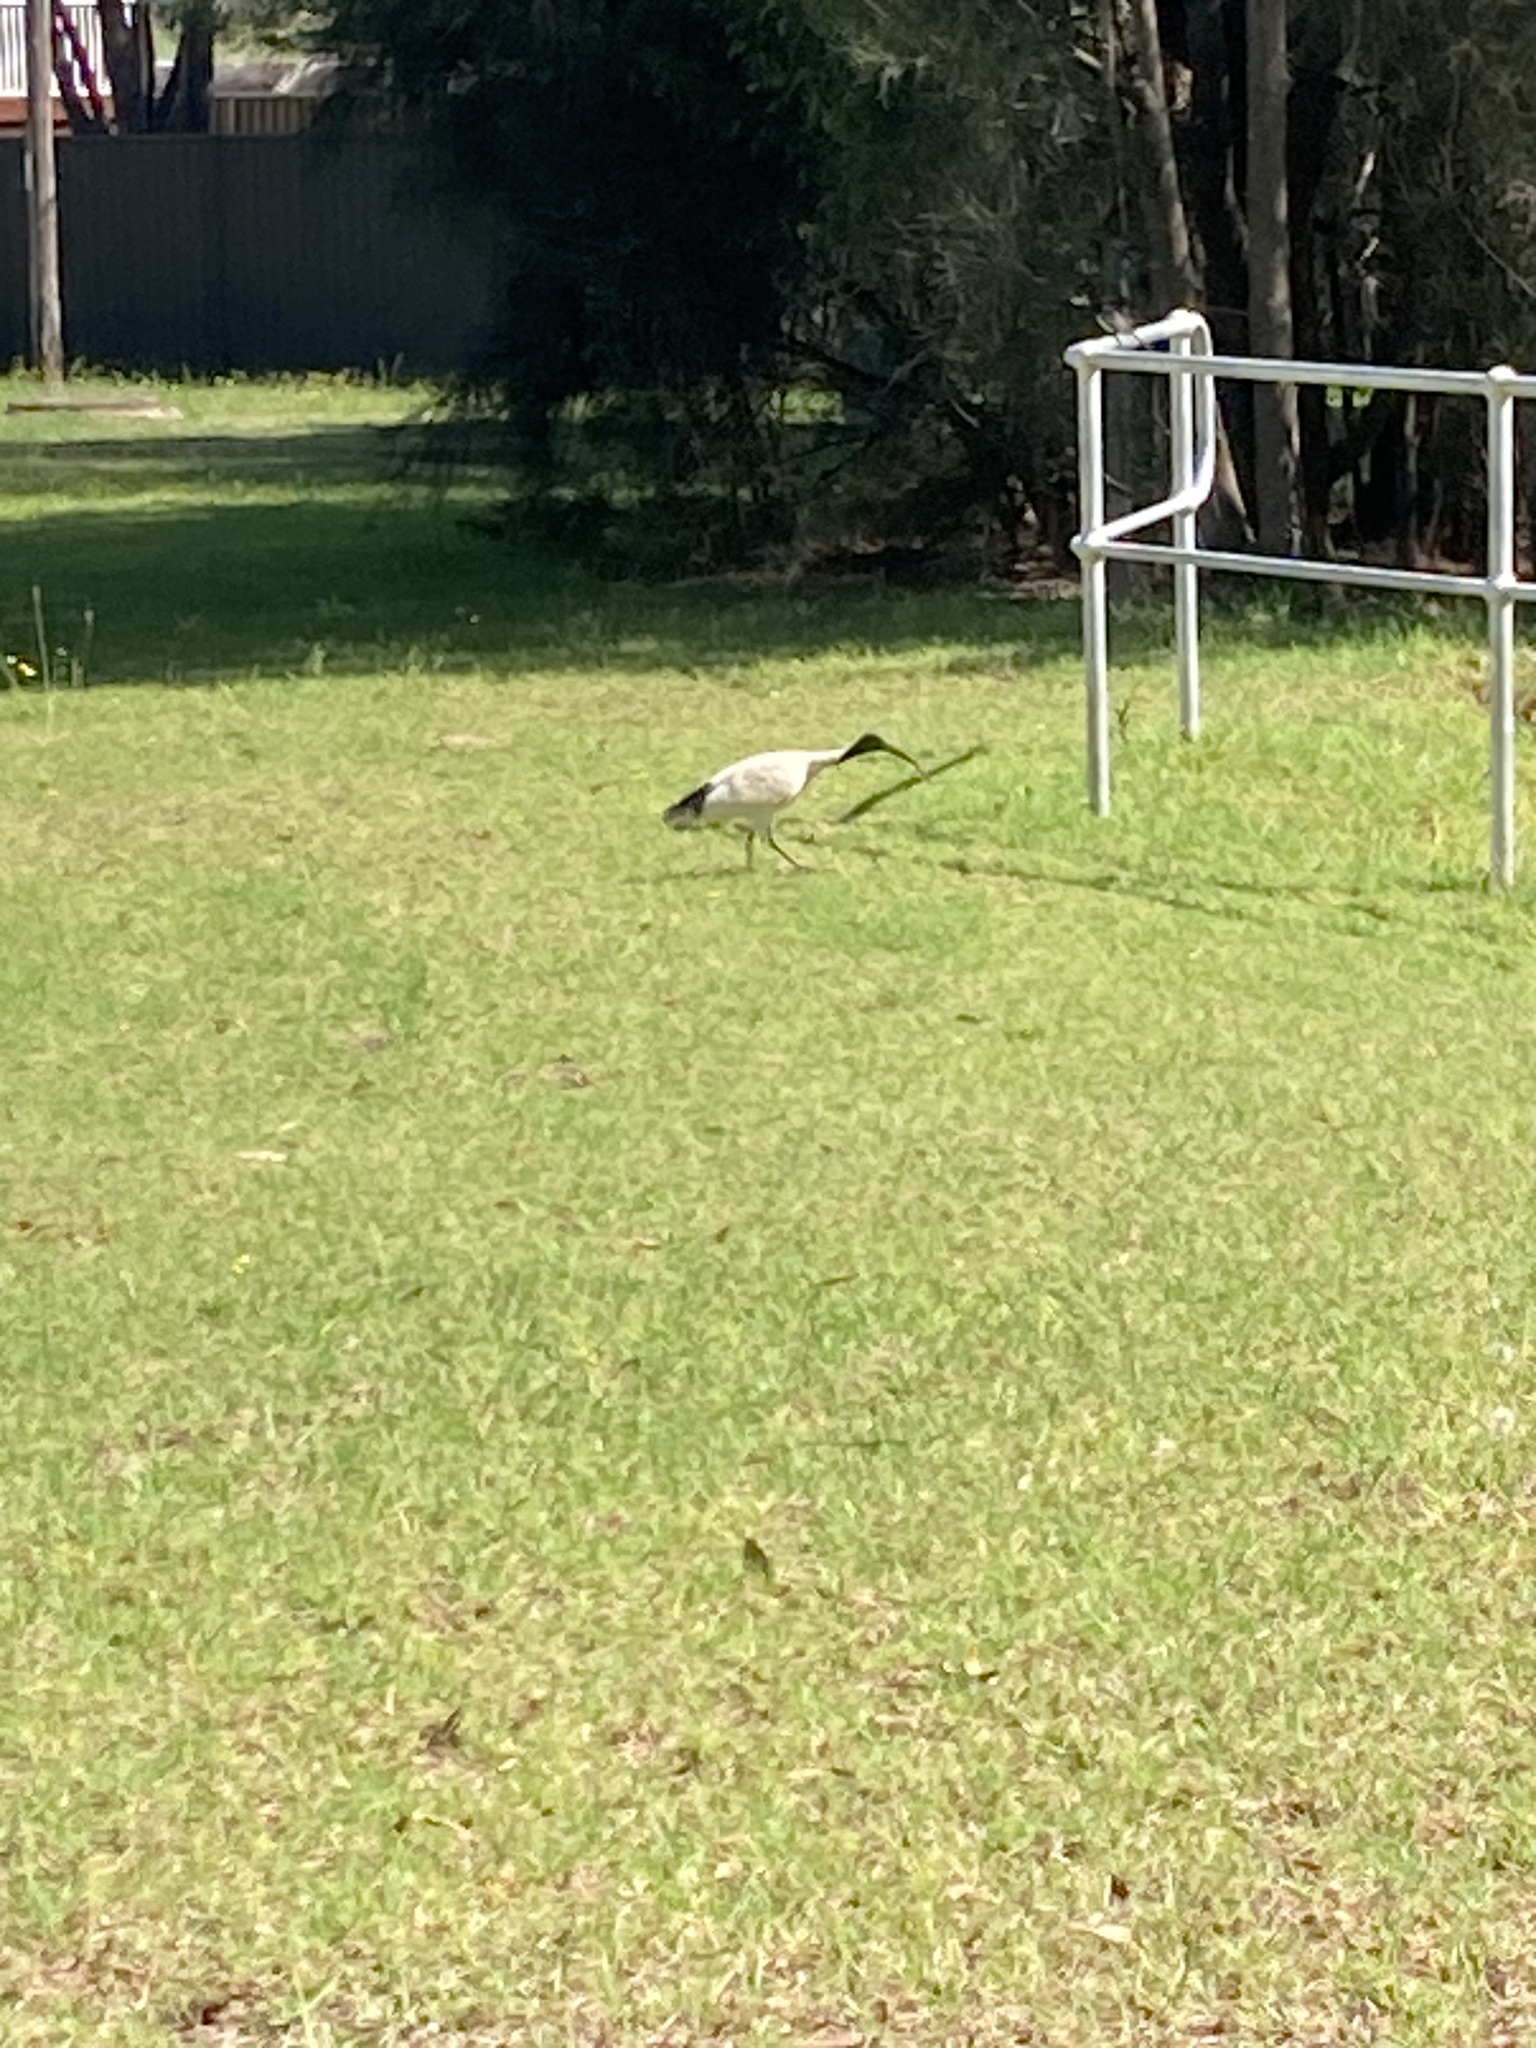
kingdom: Animalia
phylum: Chordata
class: Aves
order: Pelecaniformes
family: Threskiornithidae
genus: Threskiornis
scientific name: Threskiornis molucca
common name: Australian white ibis
